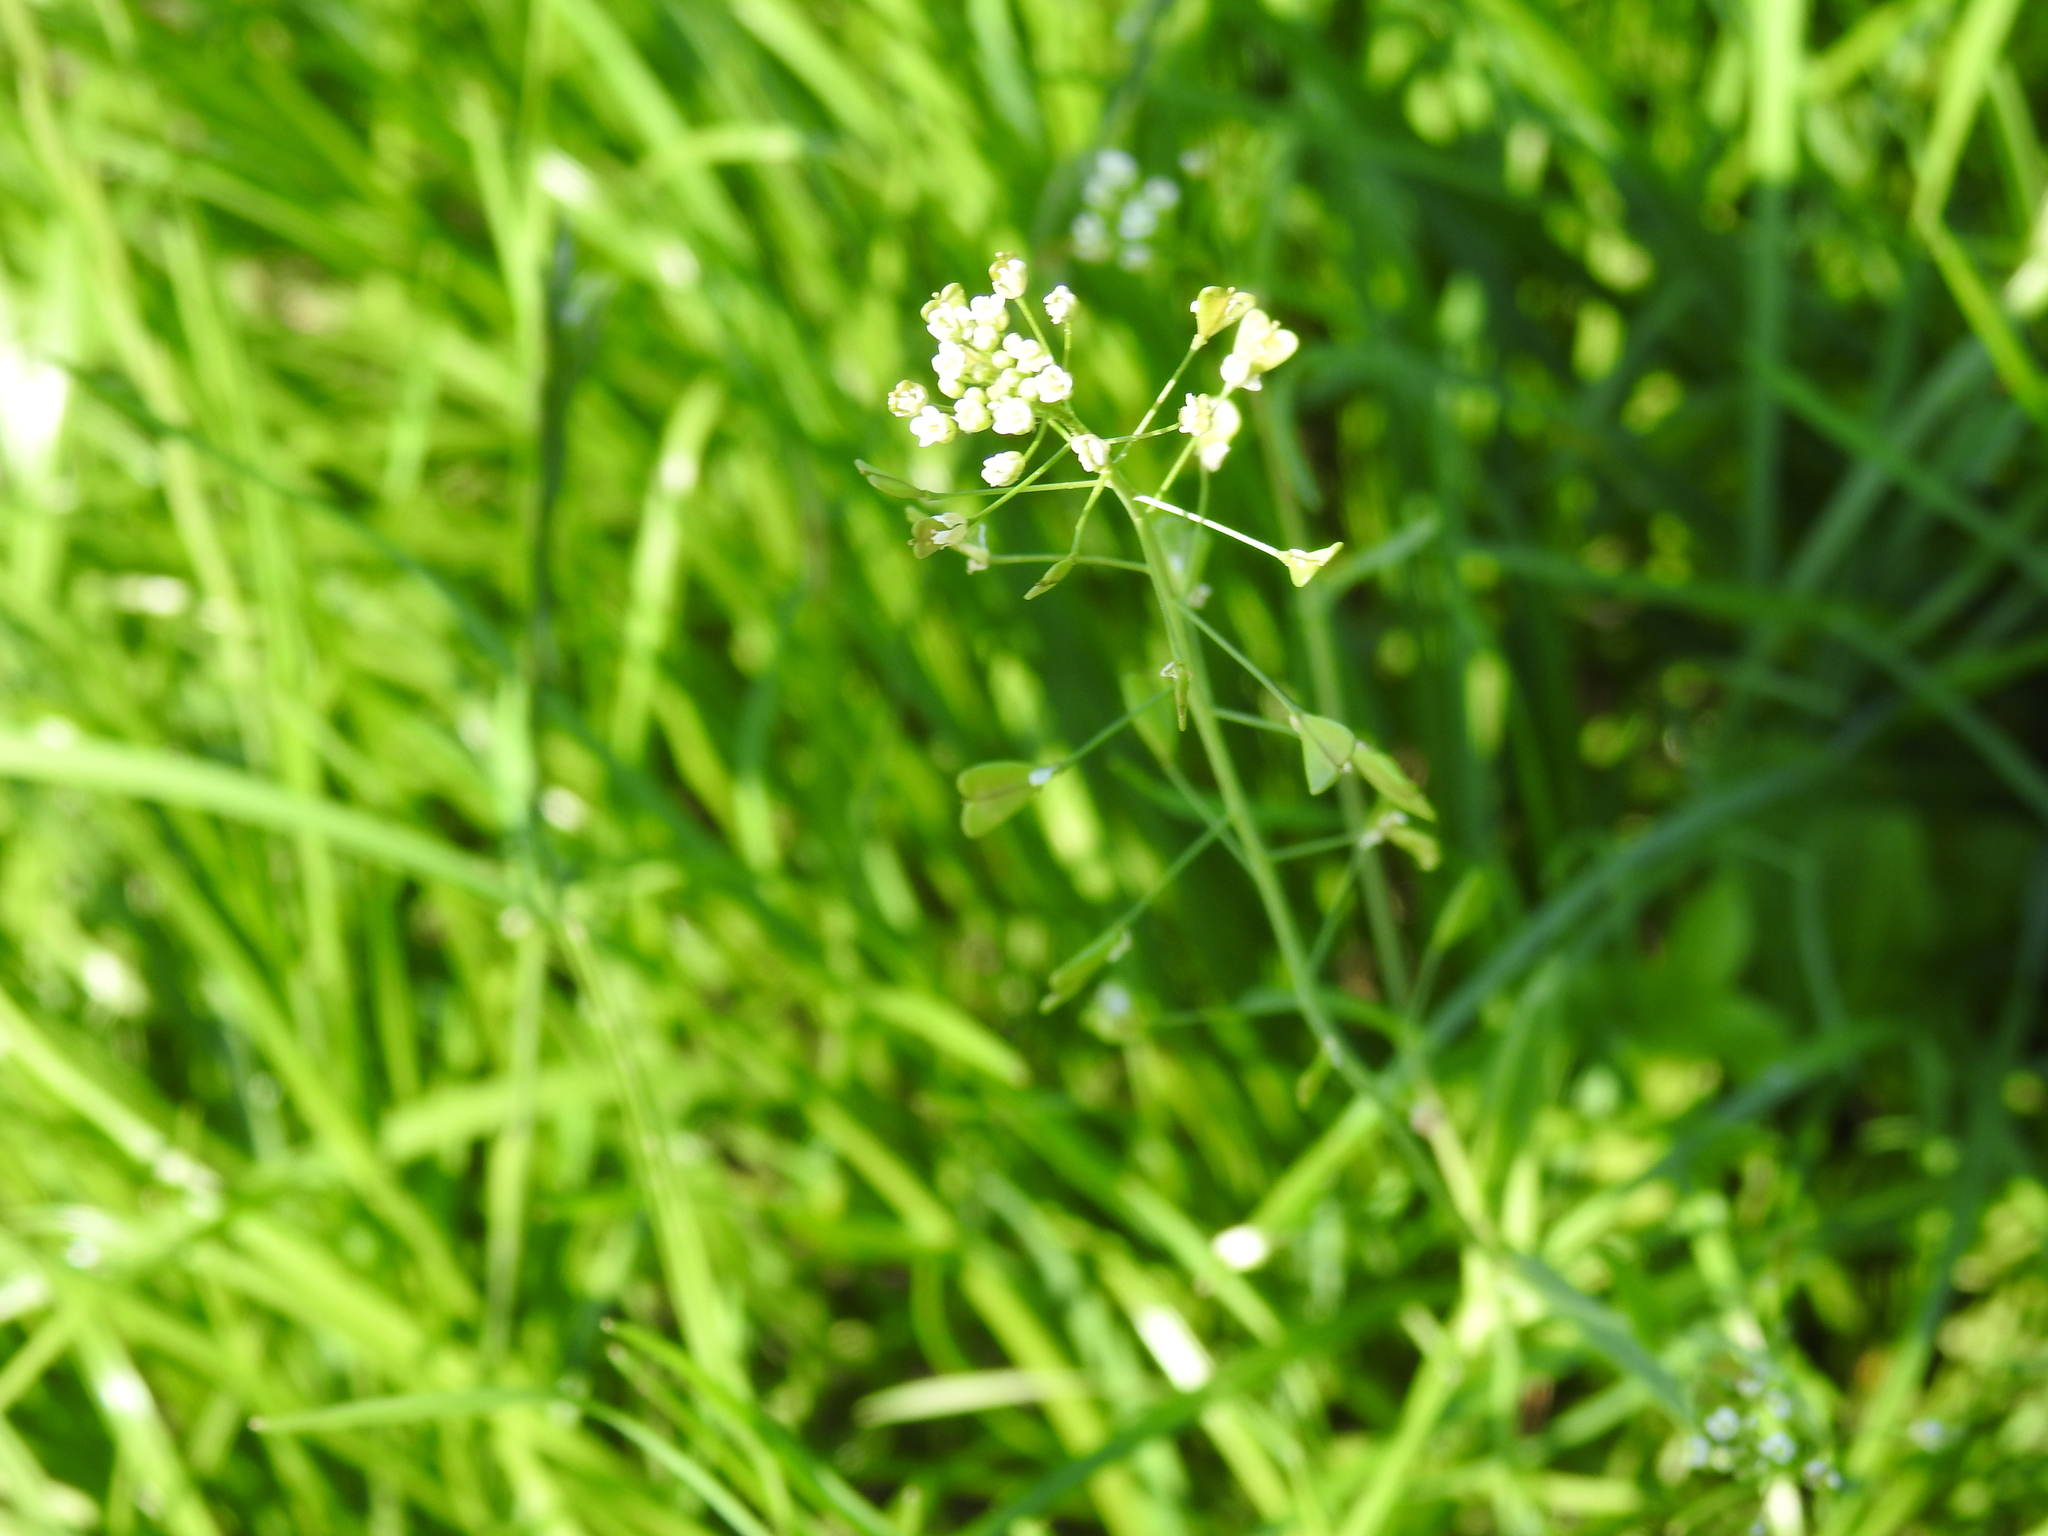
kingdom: Plantae
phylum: Tracheophyta
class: Magnoliopsida
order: Brassicales
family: Brassicaceae
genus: Capsella
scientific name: Capsella bursa-pastoris
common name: Shepherd's purse
